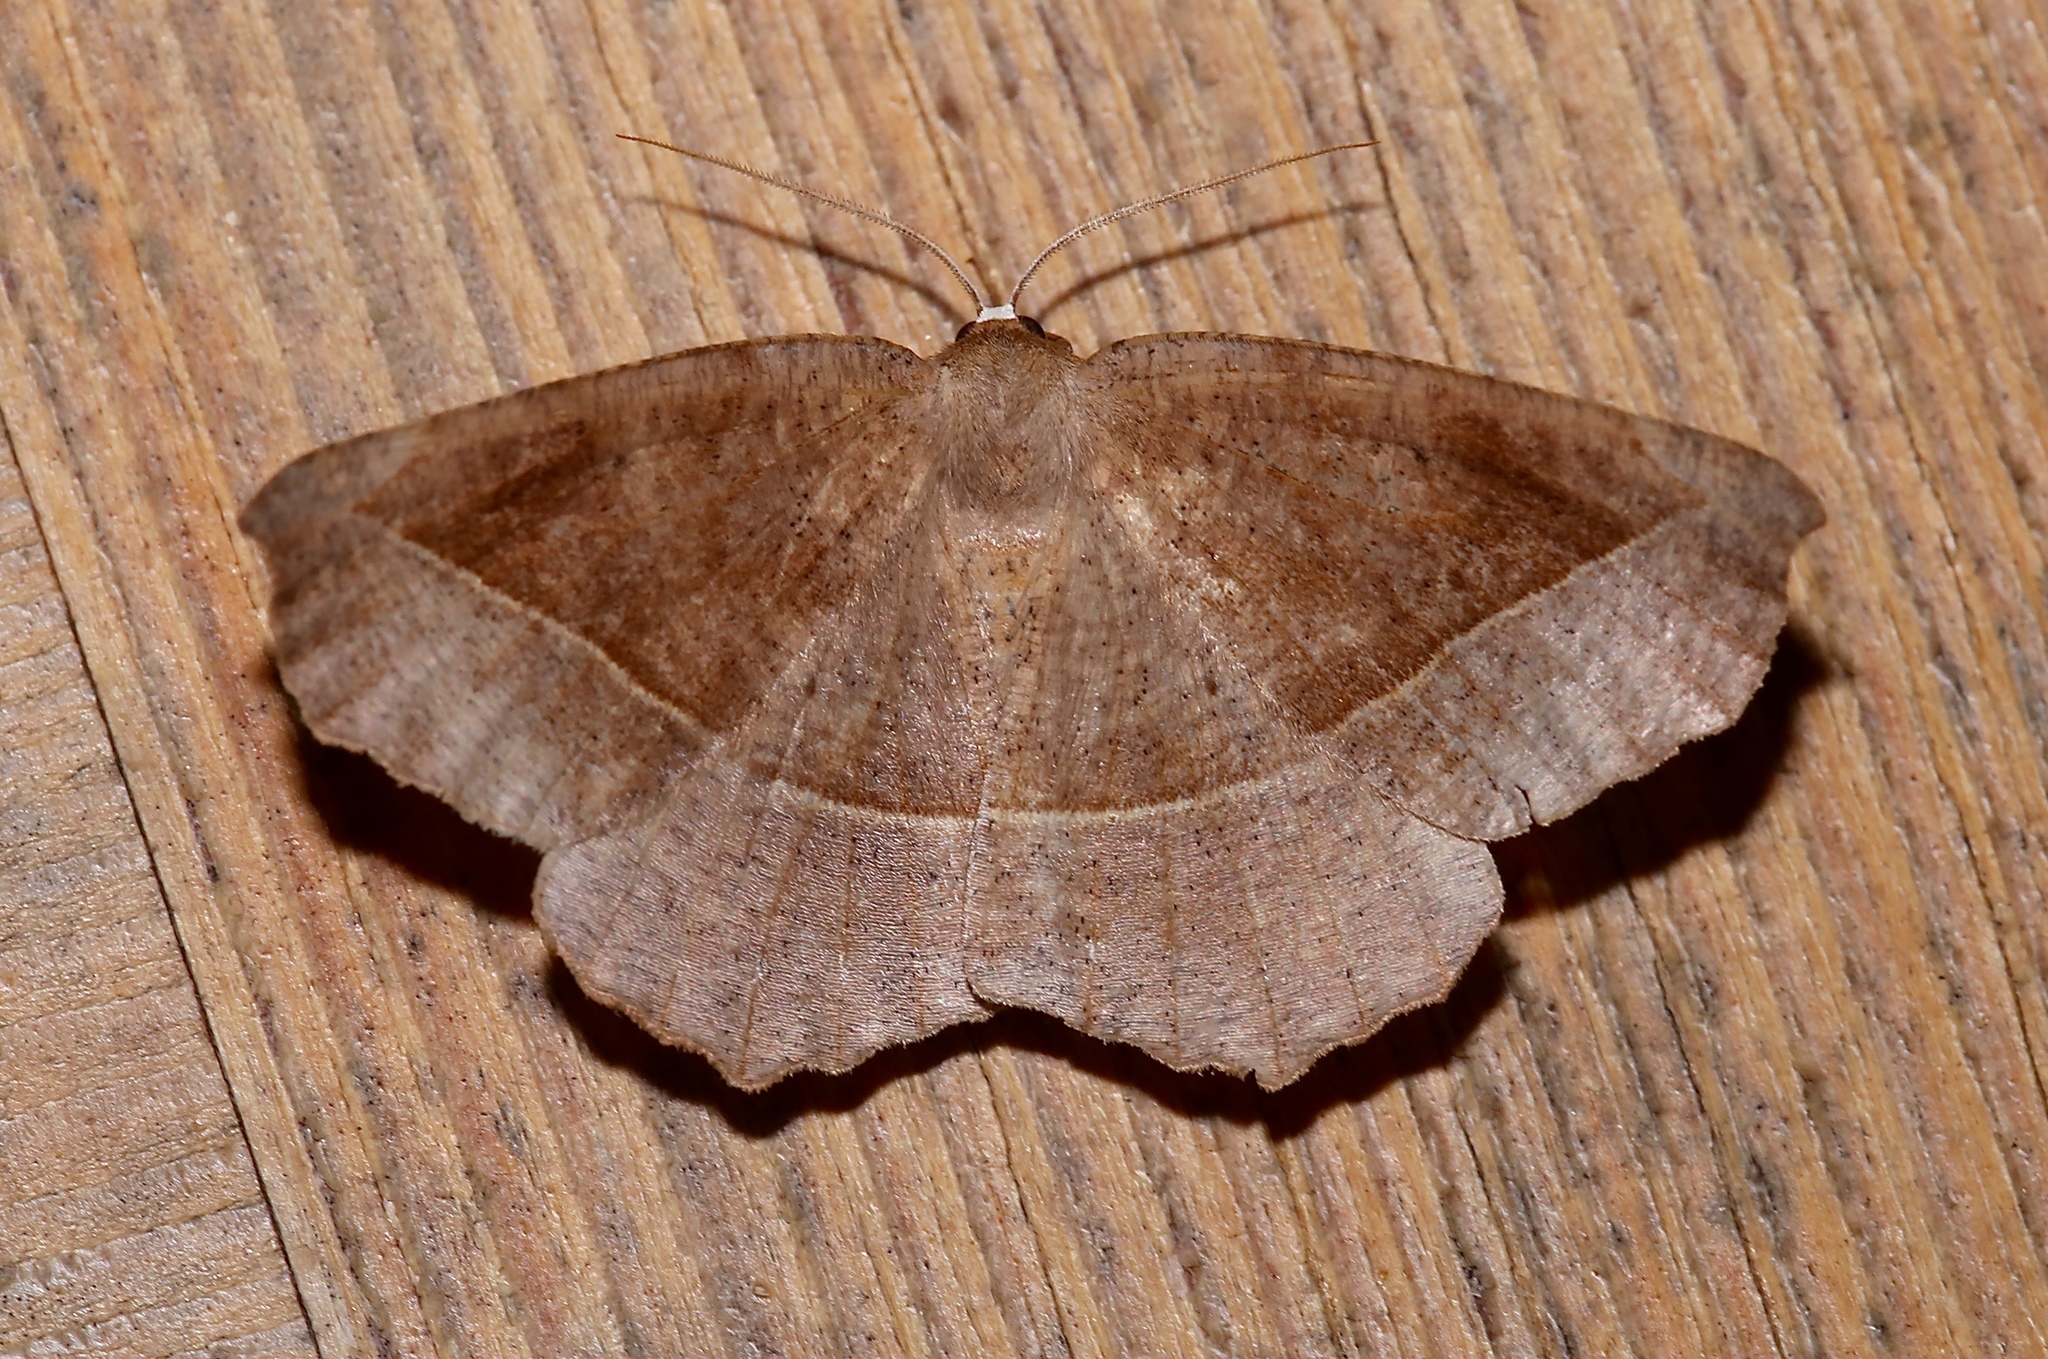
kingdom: Animalia
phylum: Arthropoda
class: Insecta
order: Lepidoptera
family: Geometridae
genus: Eutrapela
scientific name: Eutrapela clemataria
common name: Curved-toothed geometer
